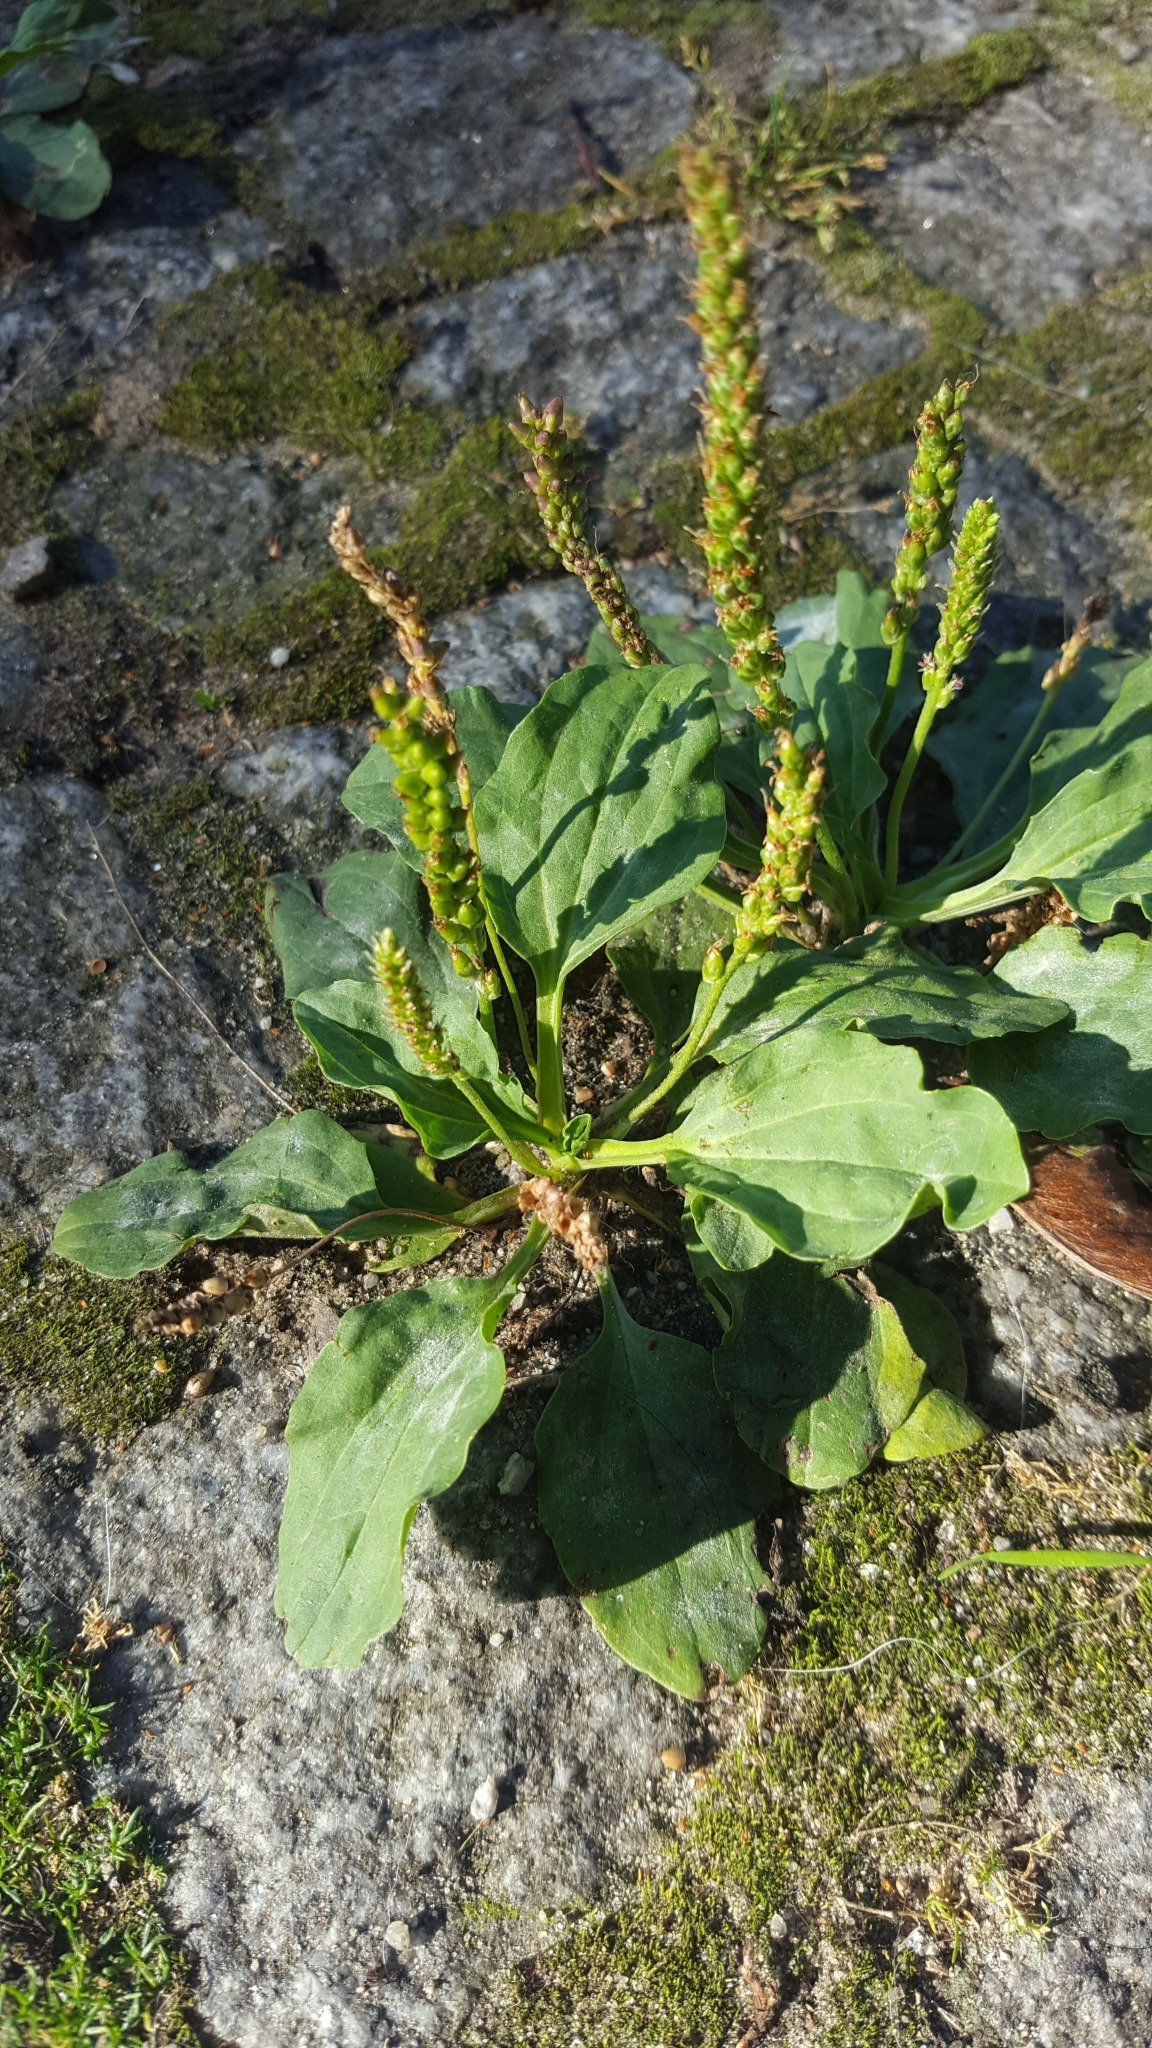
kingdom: Plantae
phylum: Tracheophyta
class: Magnoliopsida
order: Lamiales
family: Plantaginaceae
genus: Plantago
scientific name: Plantago major
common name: Common plantain
